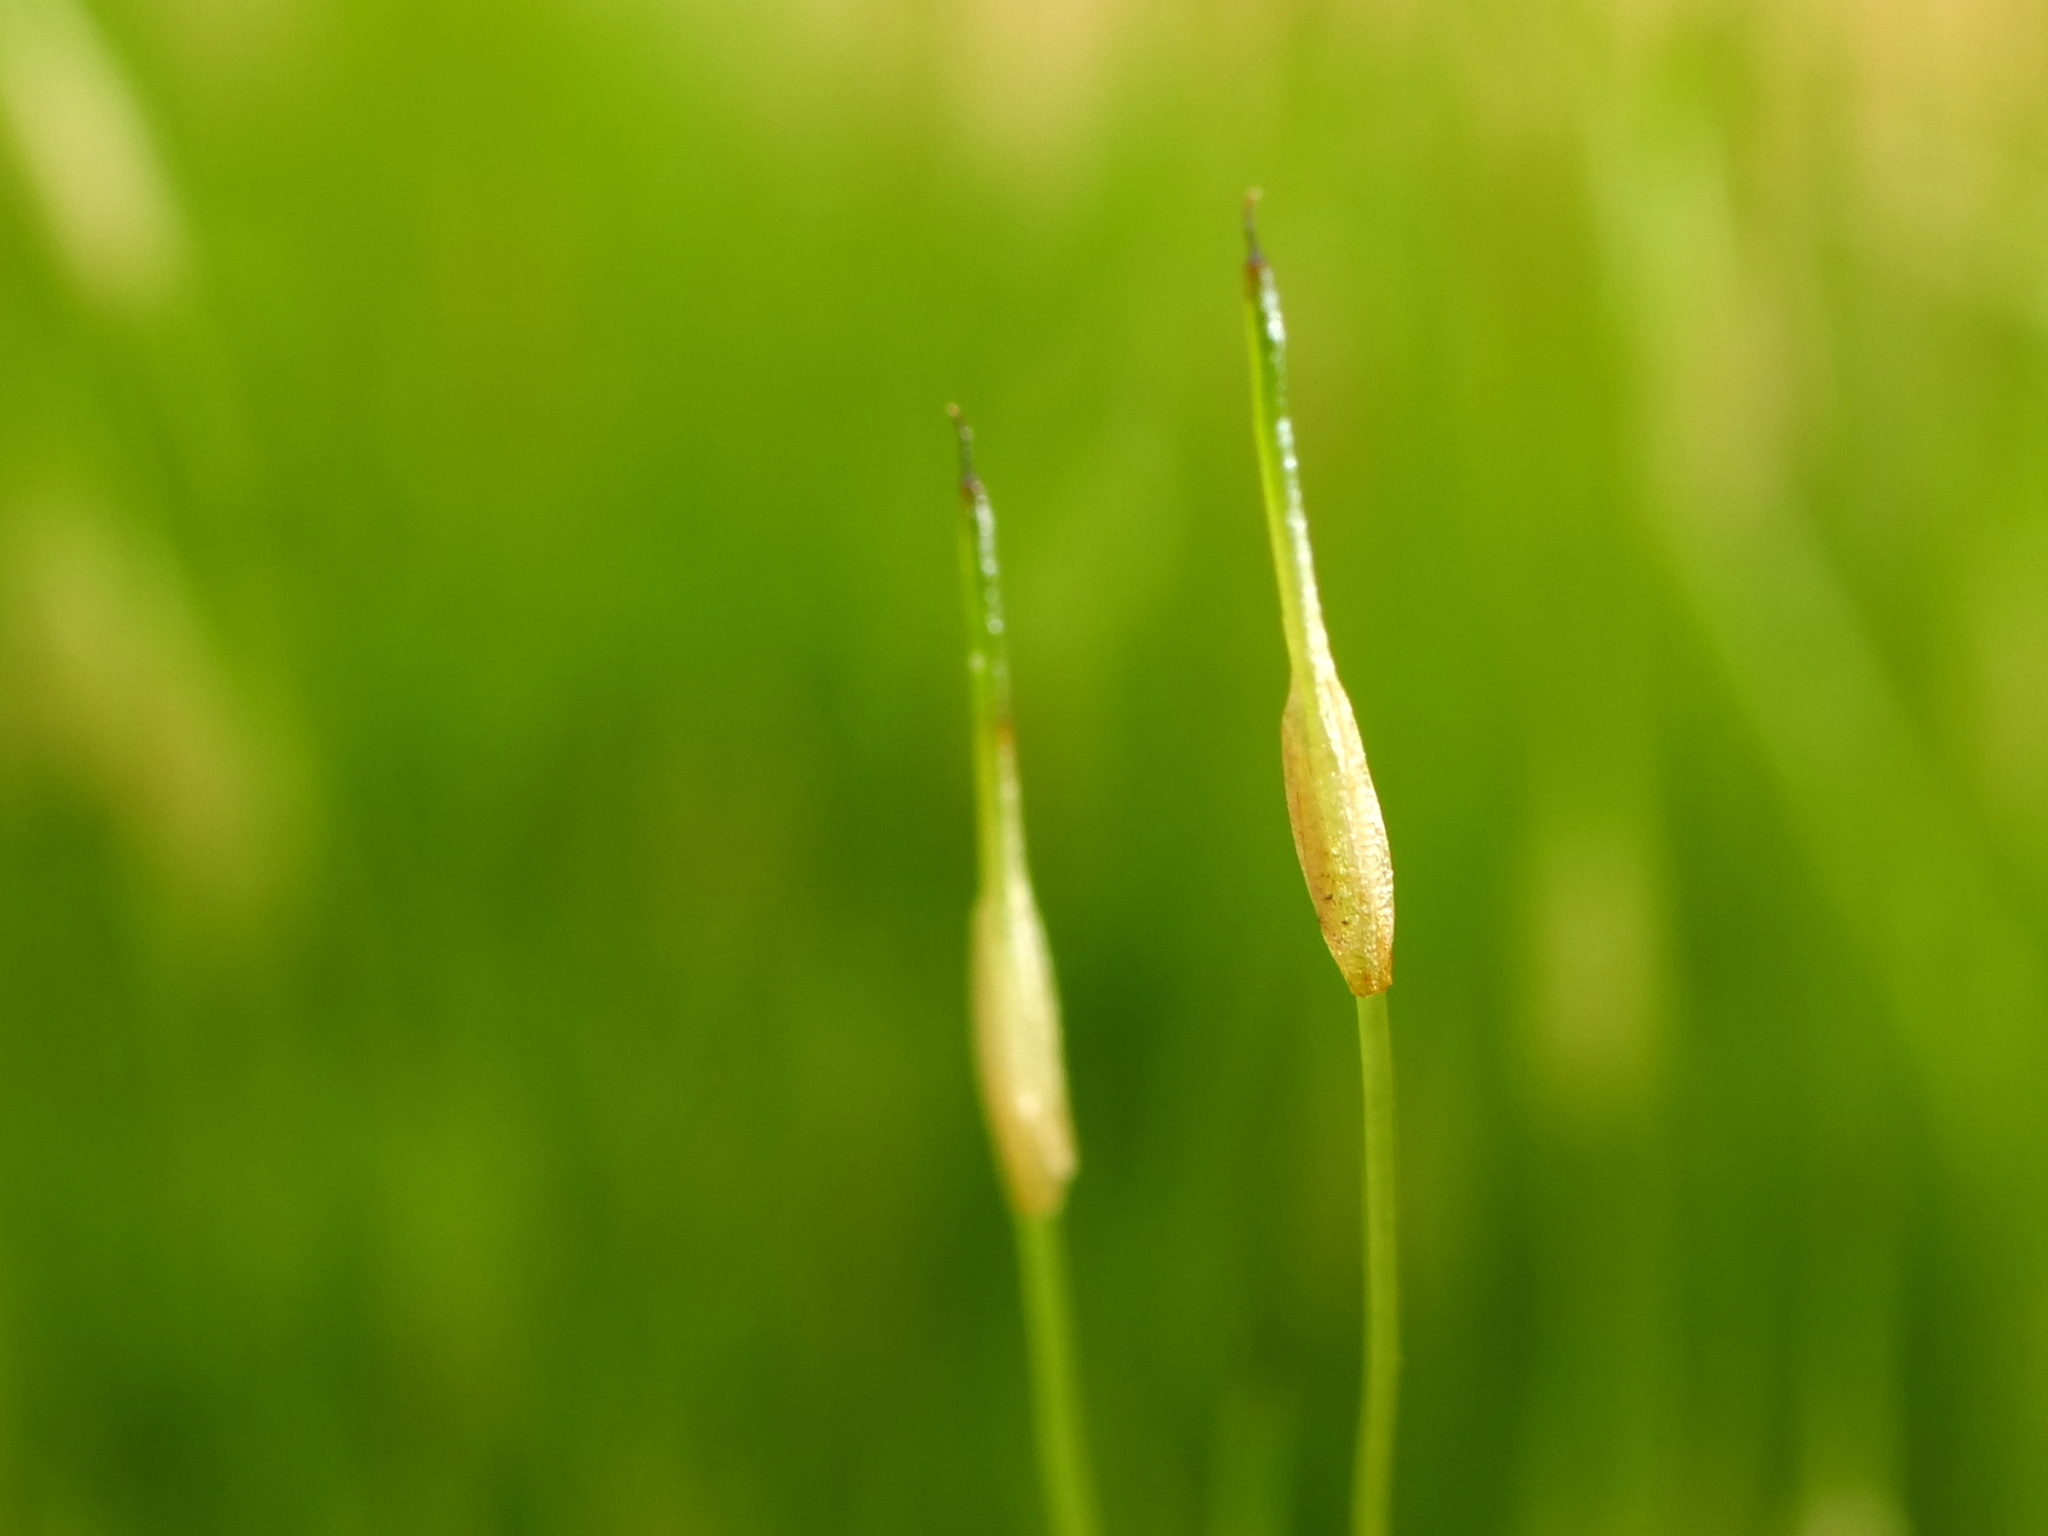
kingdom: Plantae
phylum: Bryophyta
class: Bryopsida
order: Funariales
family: Funariaceae
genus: Funaria
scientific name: Funaria hygrometrica
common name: Common cord moss
